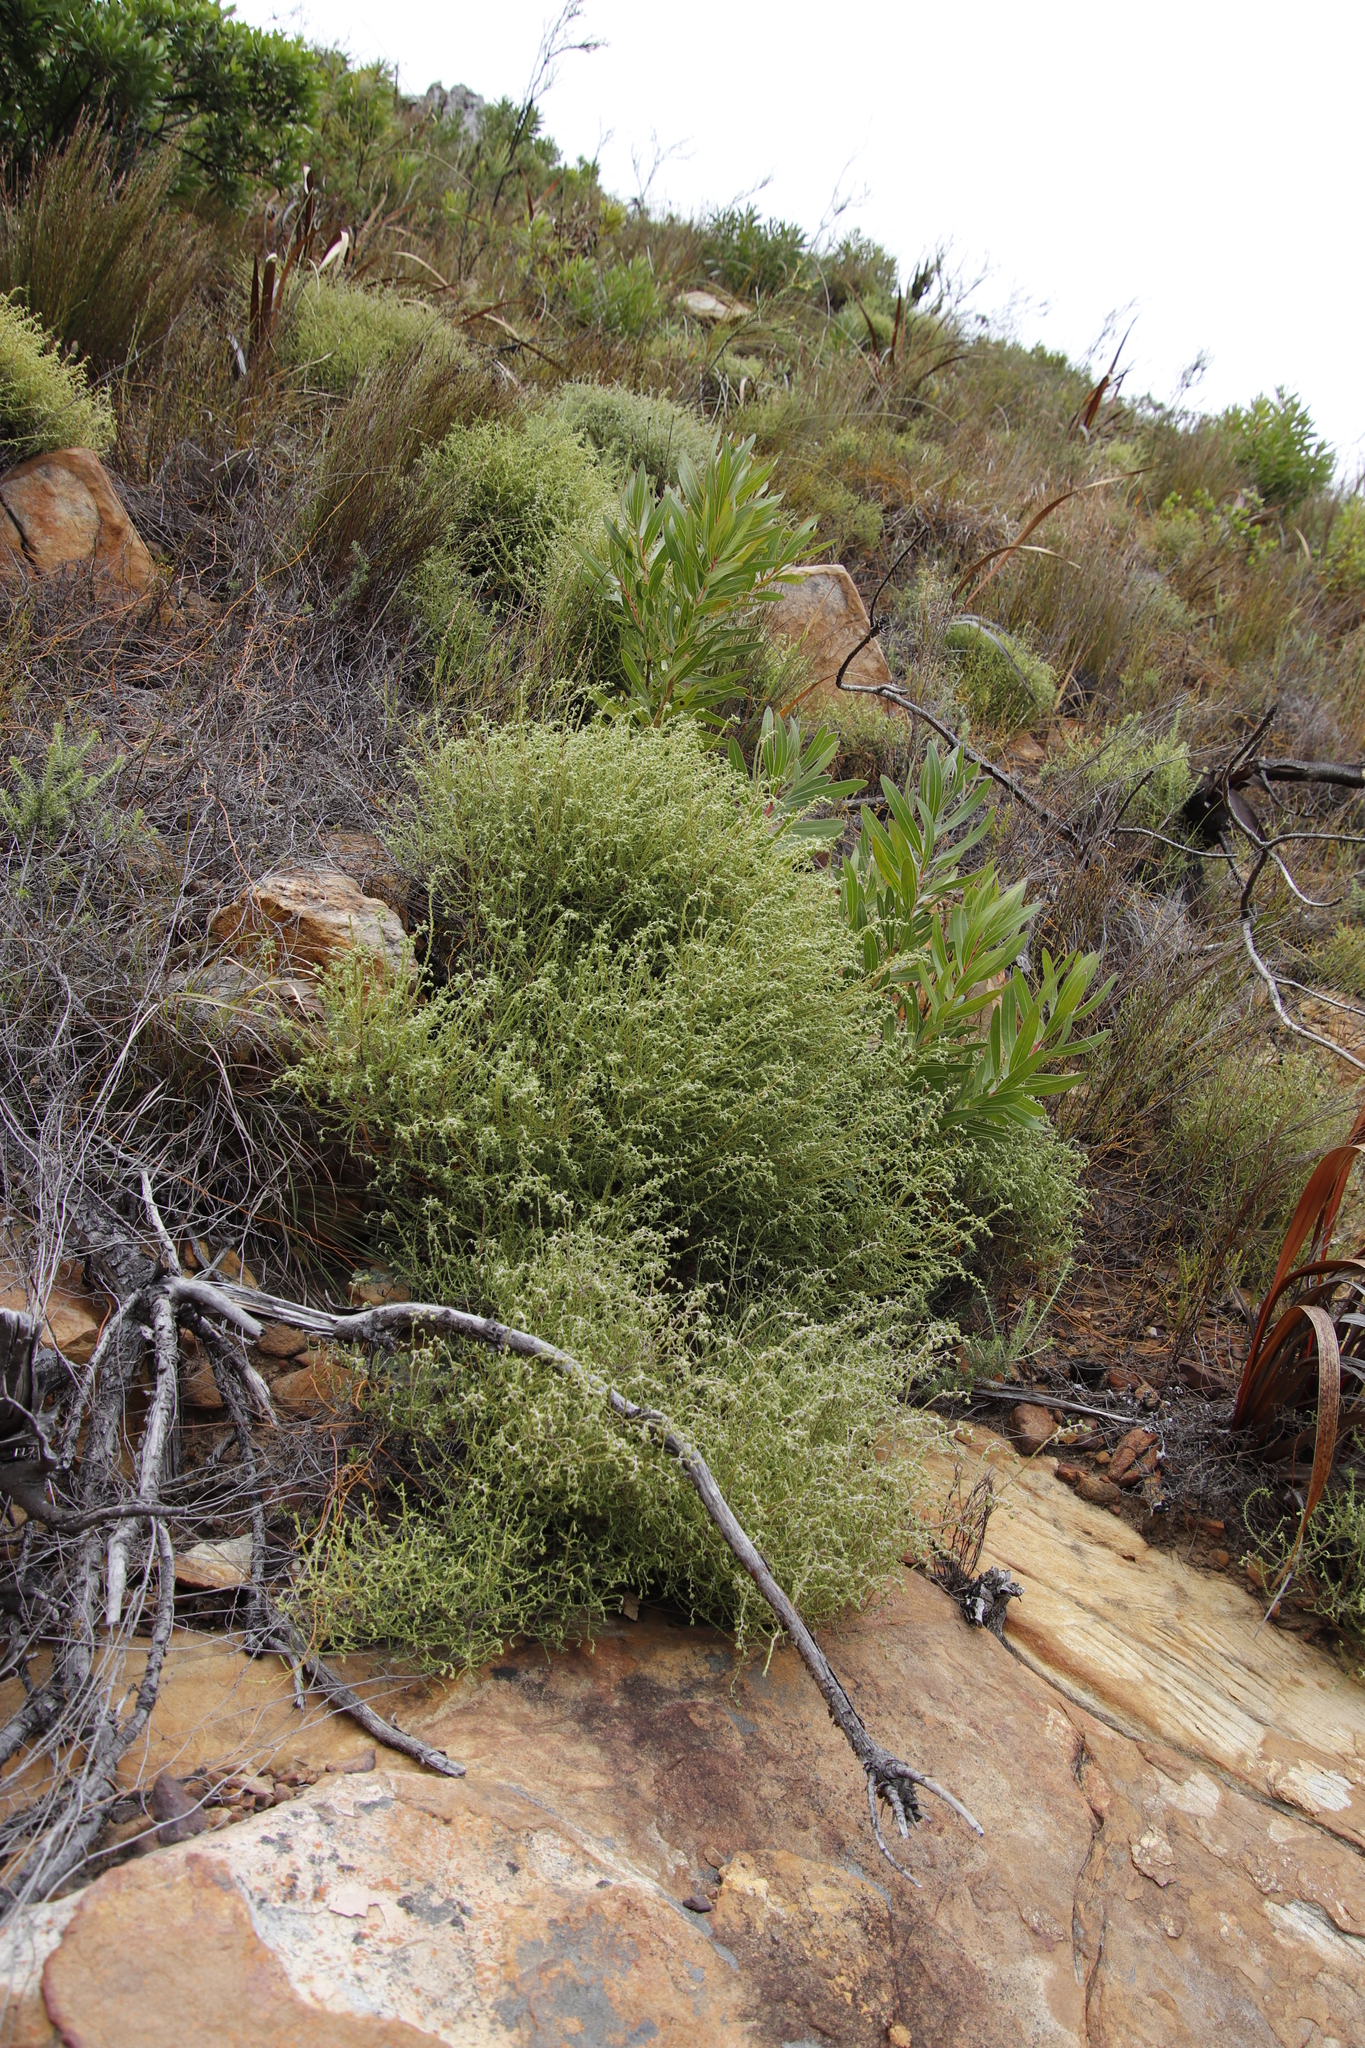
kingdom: Plantae
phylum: Tracheophyta
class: Magnoliopsida
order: Asterales
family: Asteraceae
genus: Myrovernix
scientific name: Myrovernix scaber
